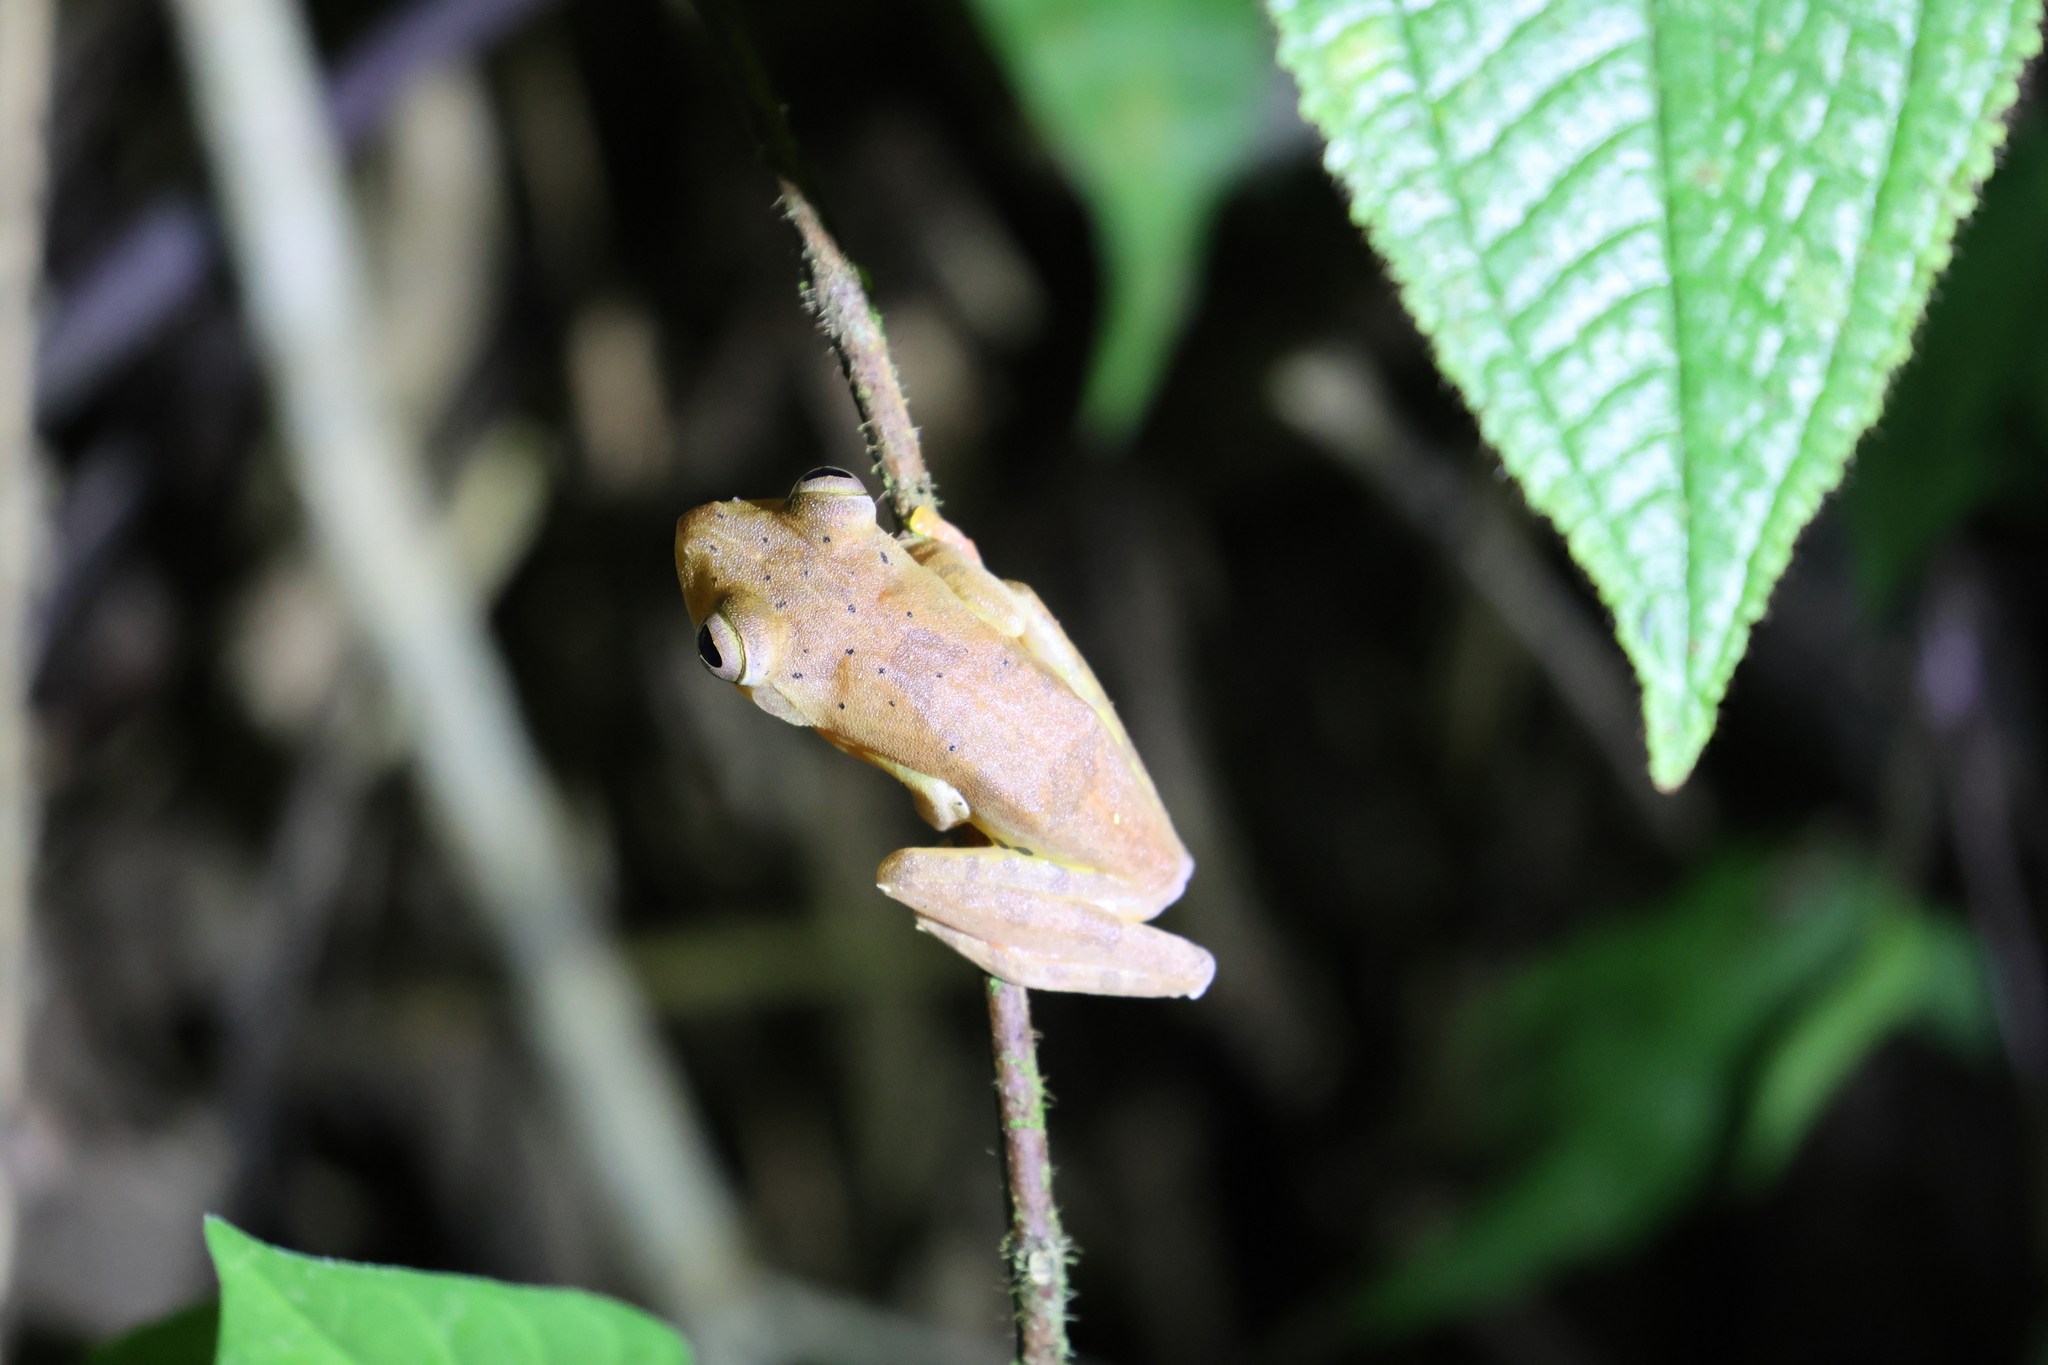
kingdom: Animalia
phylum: Chordata
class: Amphibia
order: Anura
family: Rhacophoridae
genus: Rhacophorus
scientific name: Rhacophorus pardalis
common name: Harlequin tree frog
